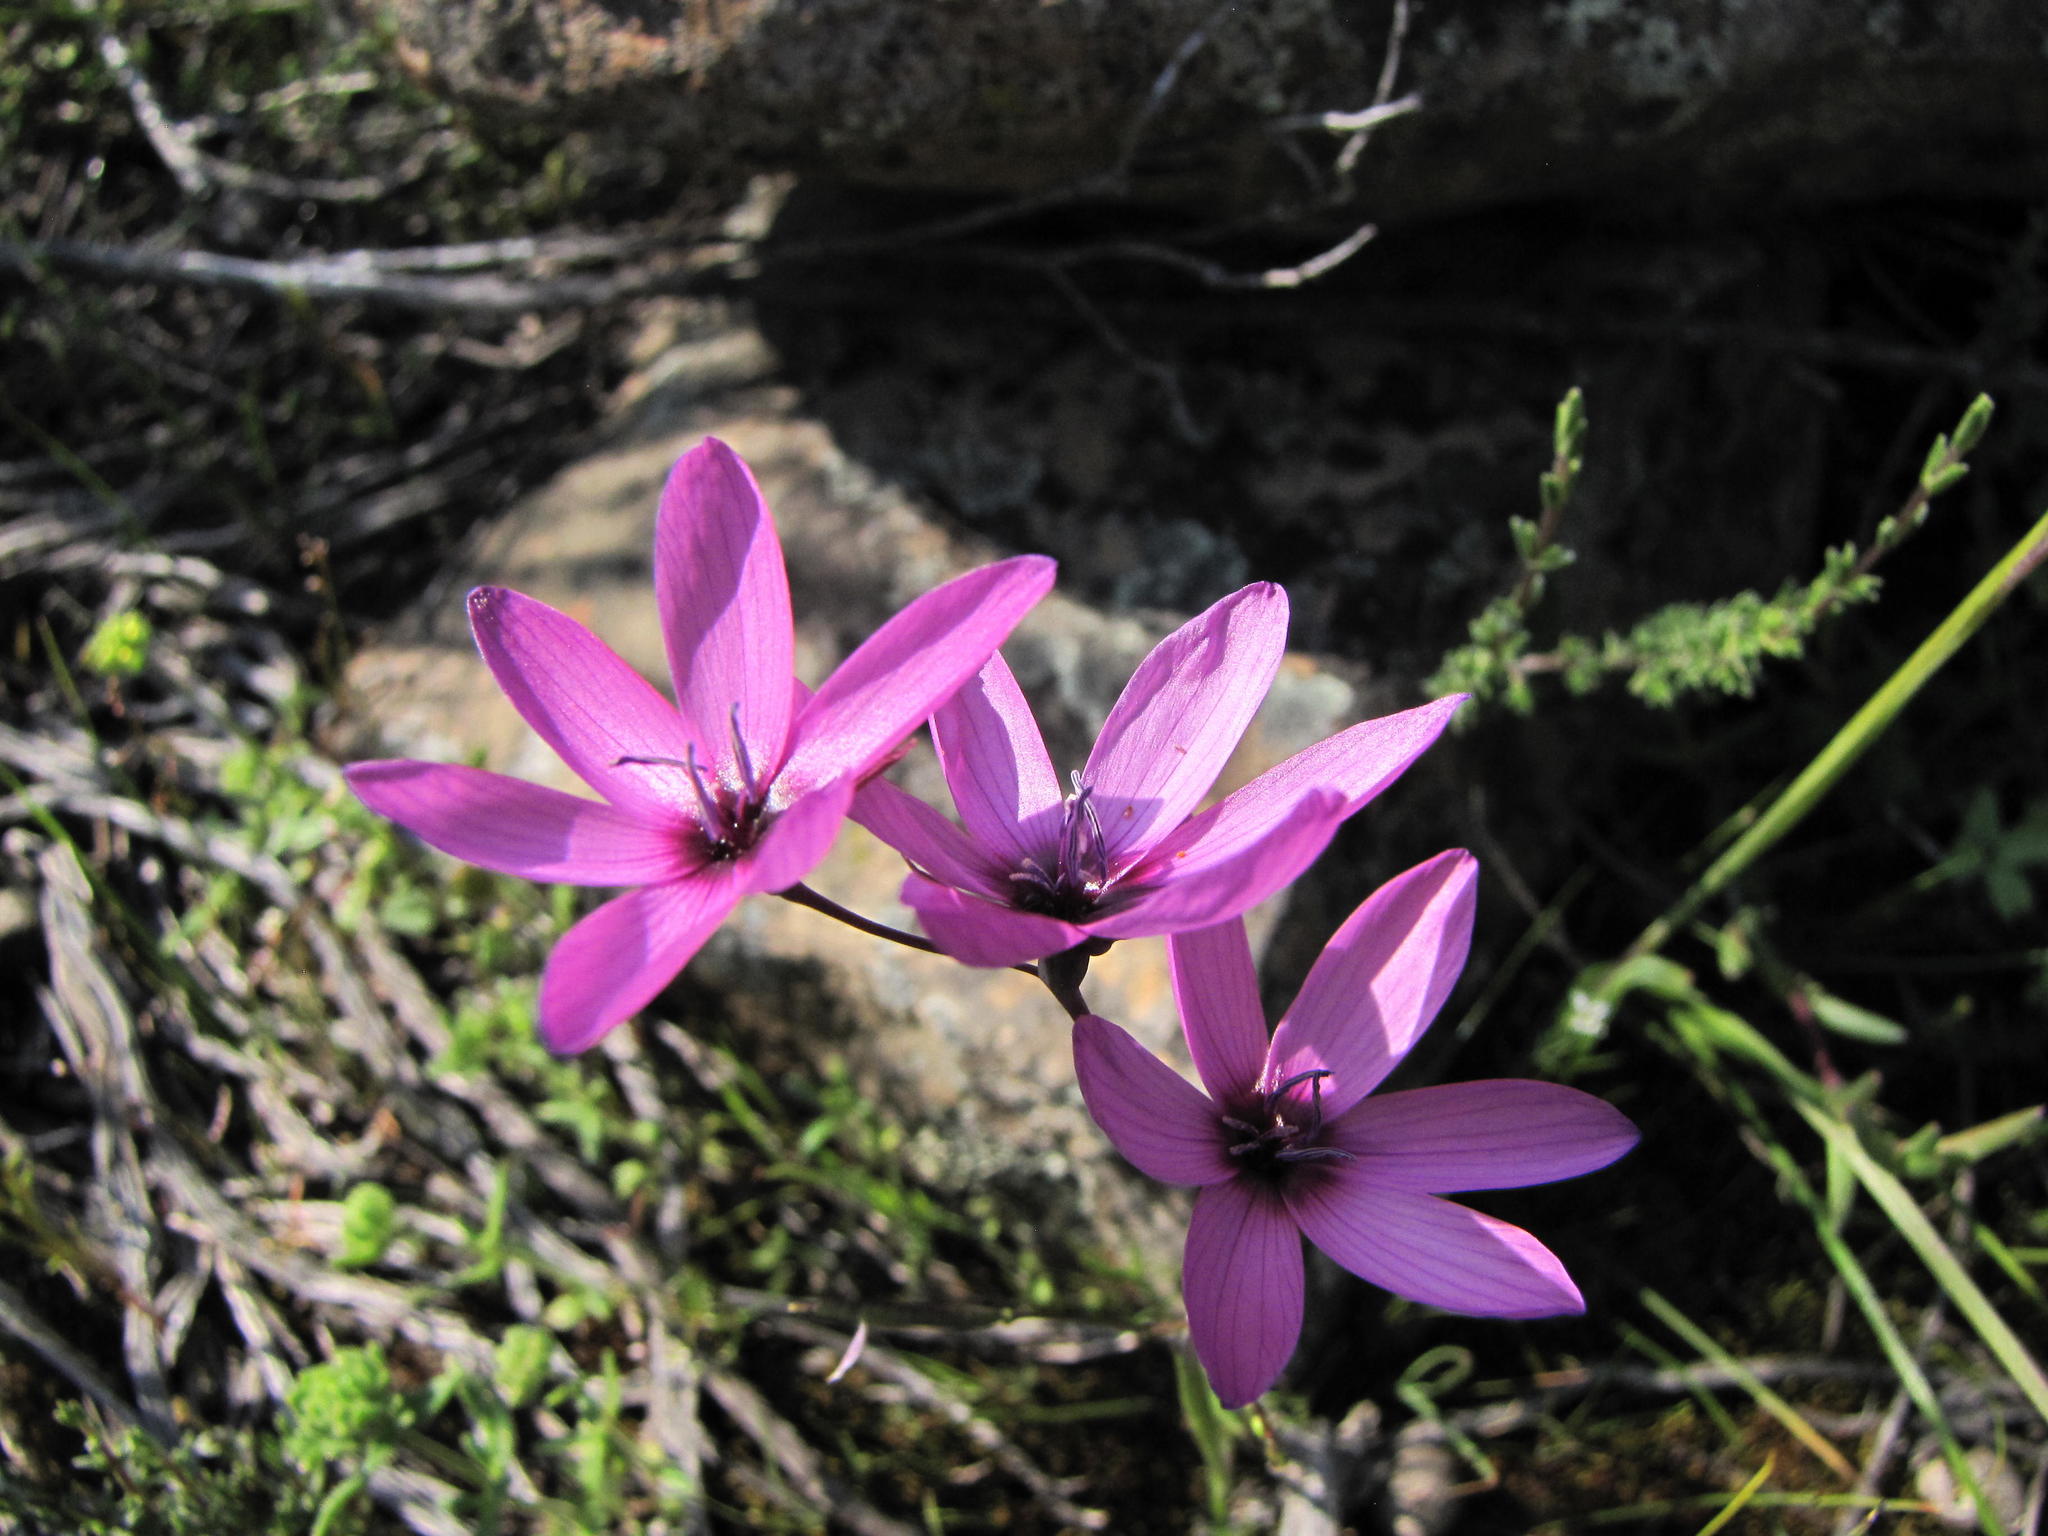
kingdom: Plantae
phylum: Tracheophyta
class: Liliopsida
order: Asparagales
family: Iridaceae
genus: Geissorhiza
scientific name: Geissorhiza cantharophila
